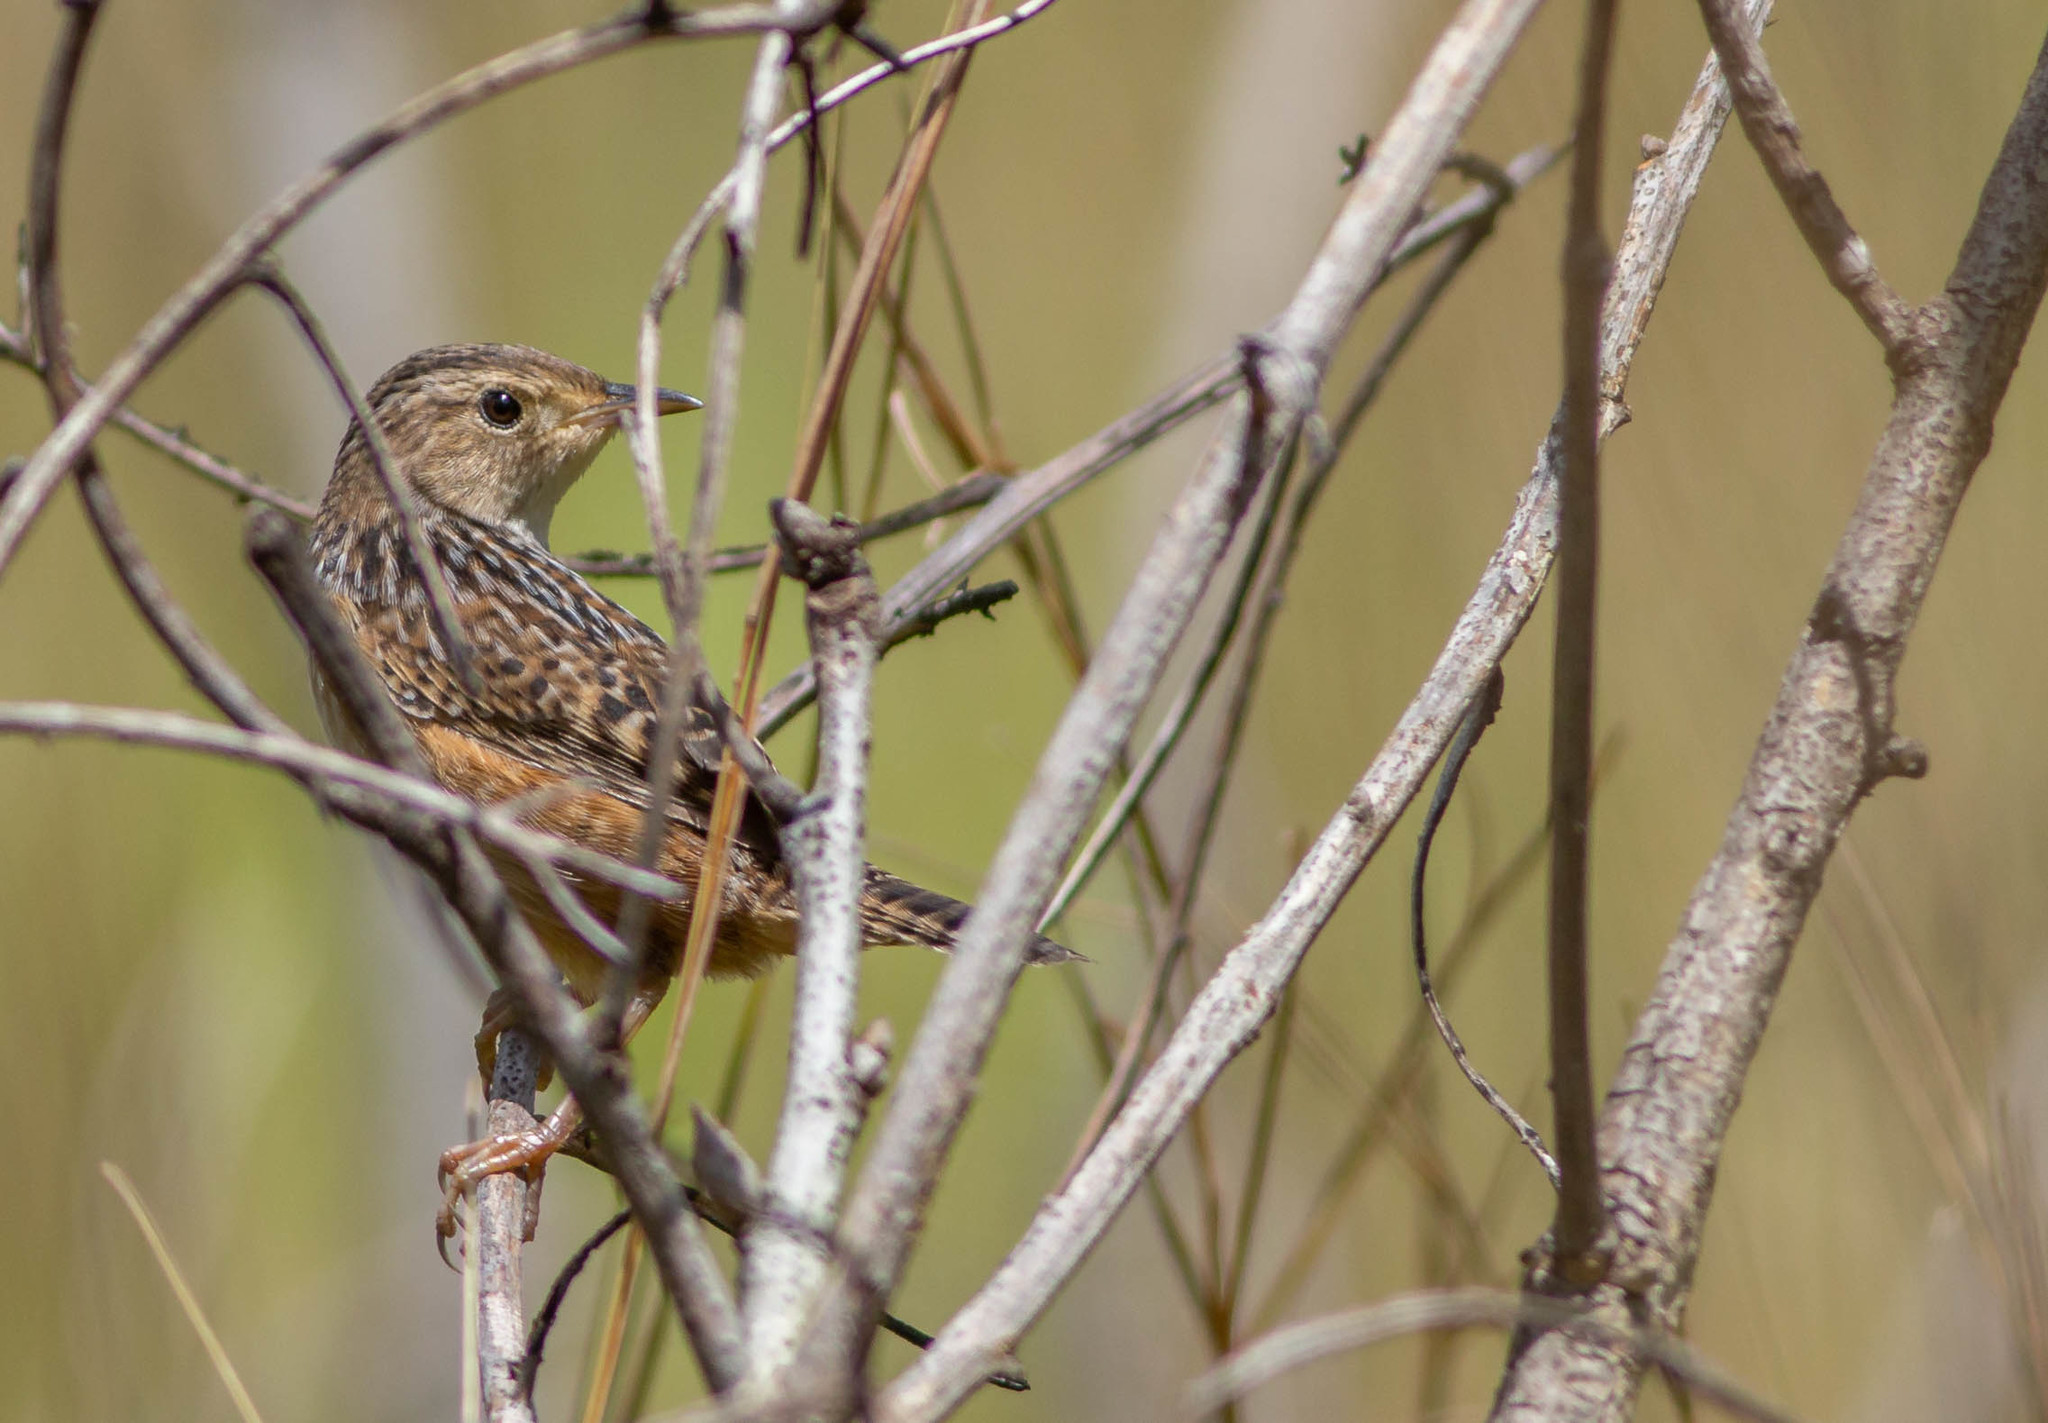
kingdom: Animalia
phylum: Chordata
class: Aves
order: Passeriformes
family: Troglodytidae
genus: Cistothorus
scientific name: Cistothorus platensis
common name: Sedge wren
